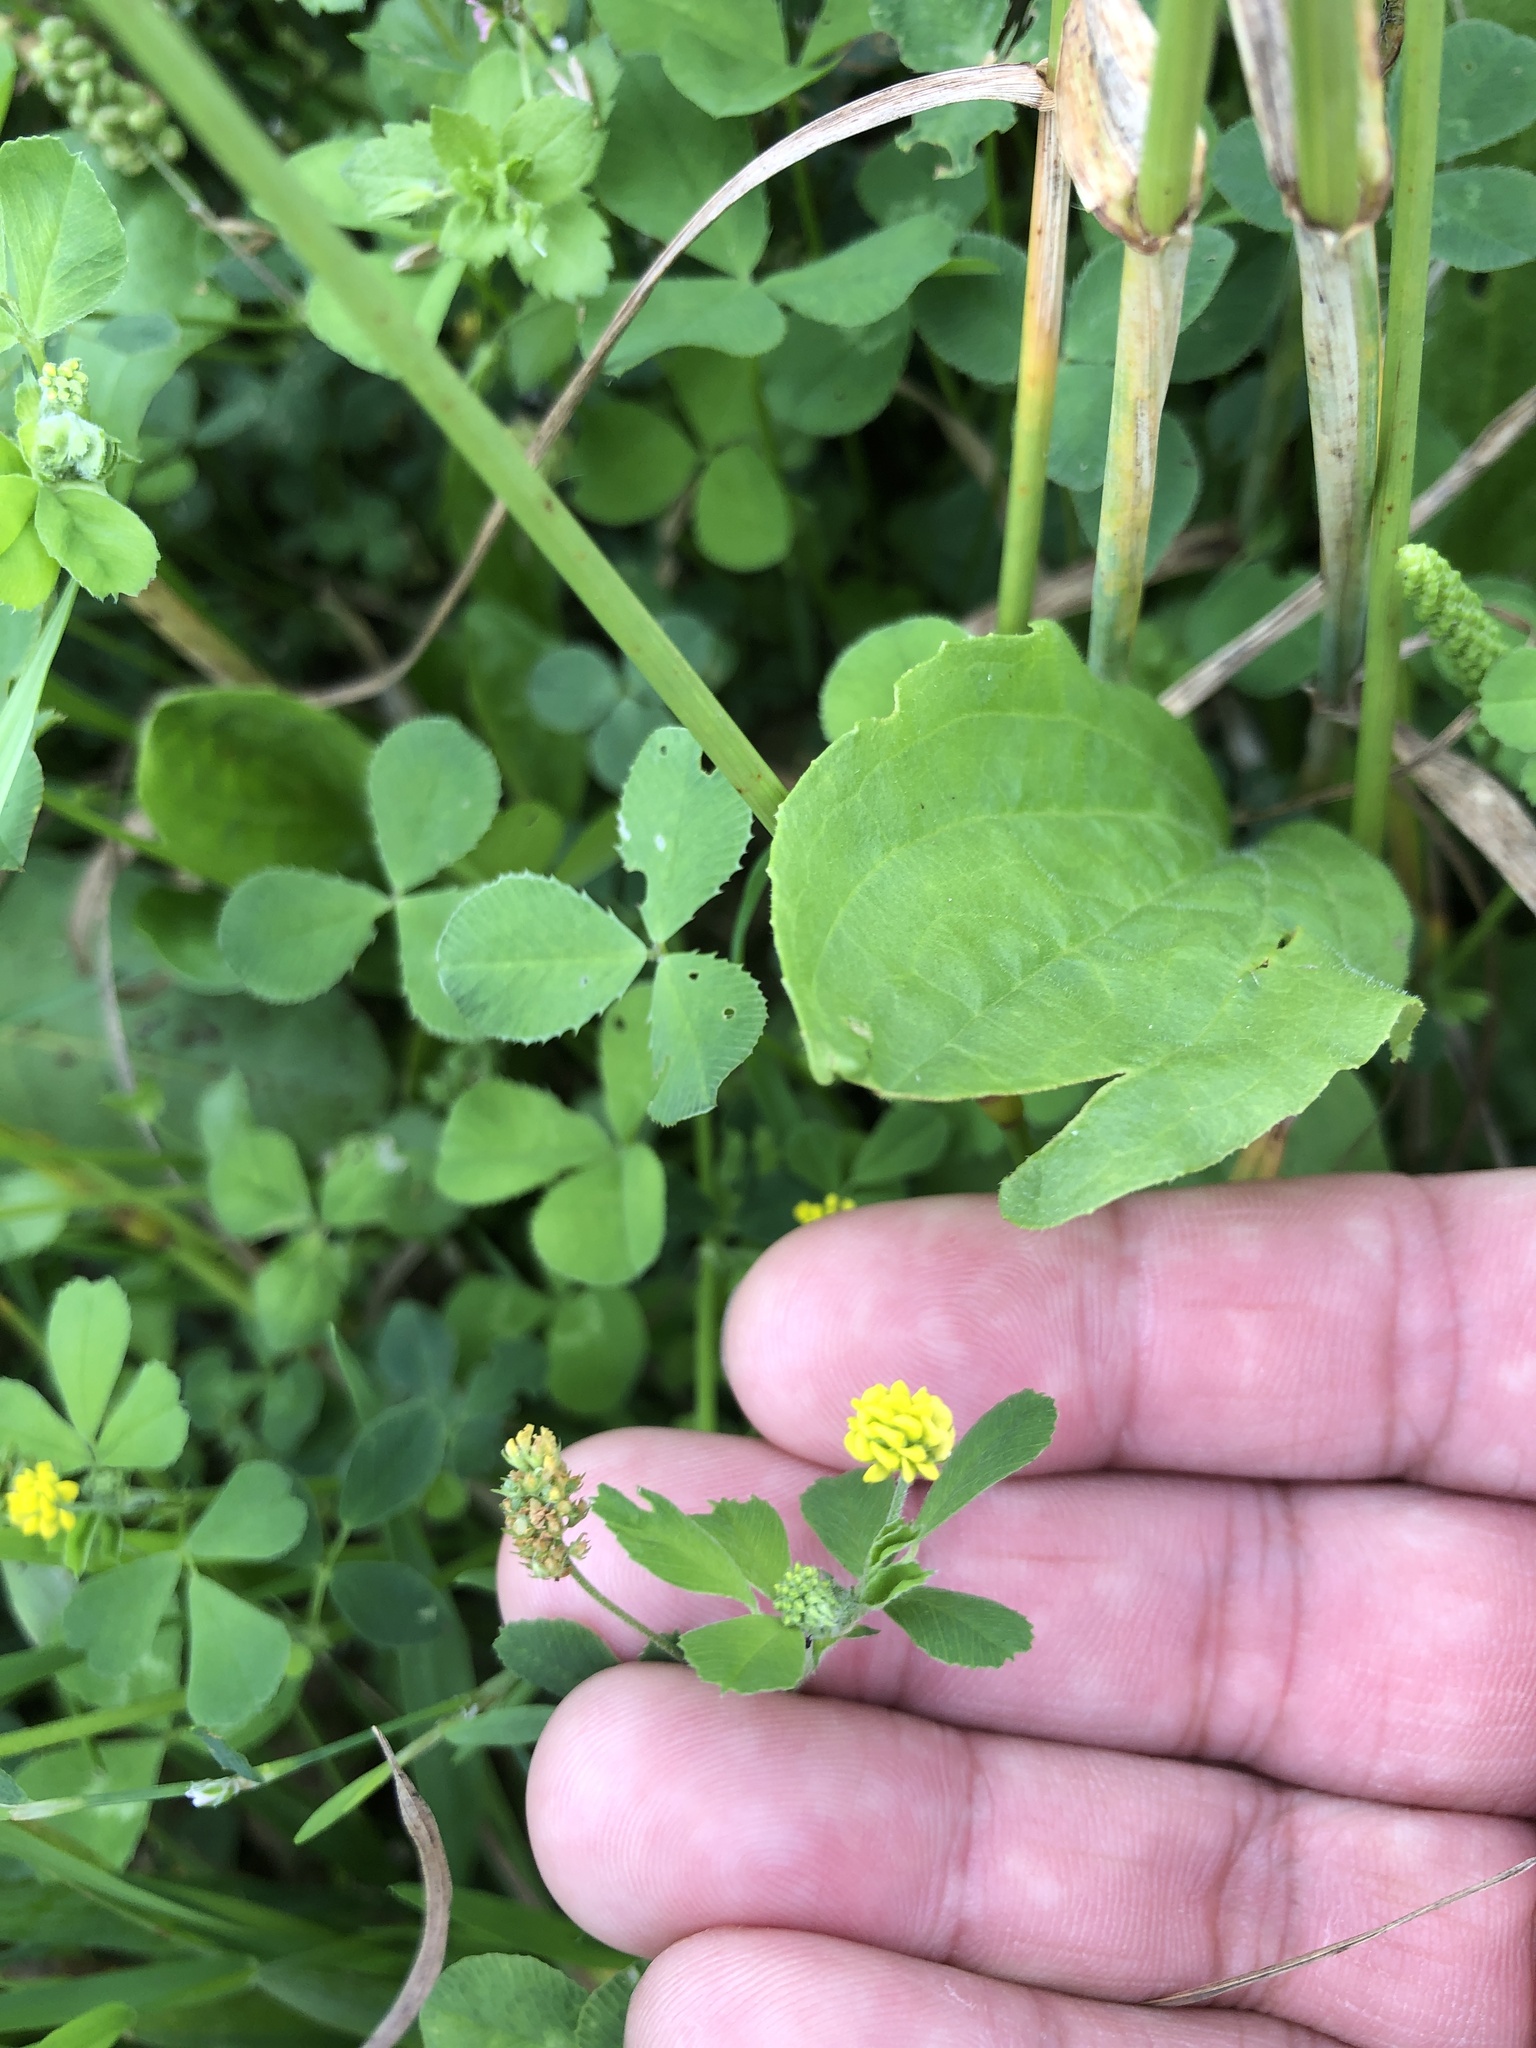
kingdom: Plantae
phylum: Tracheophyta
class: Magnoliopsida
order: Fabales
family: Fabaceae
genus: Trifolium
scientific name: Trifolium dubium
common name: Suckling clover
